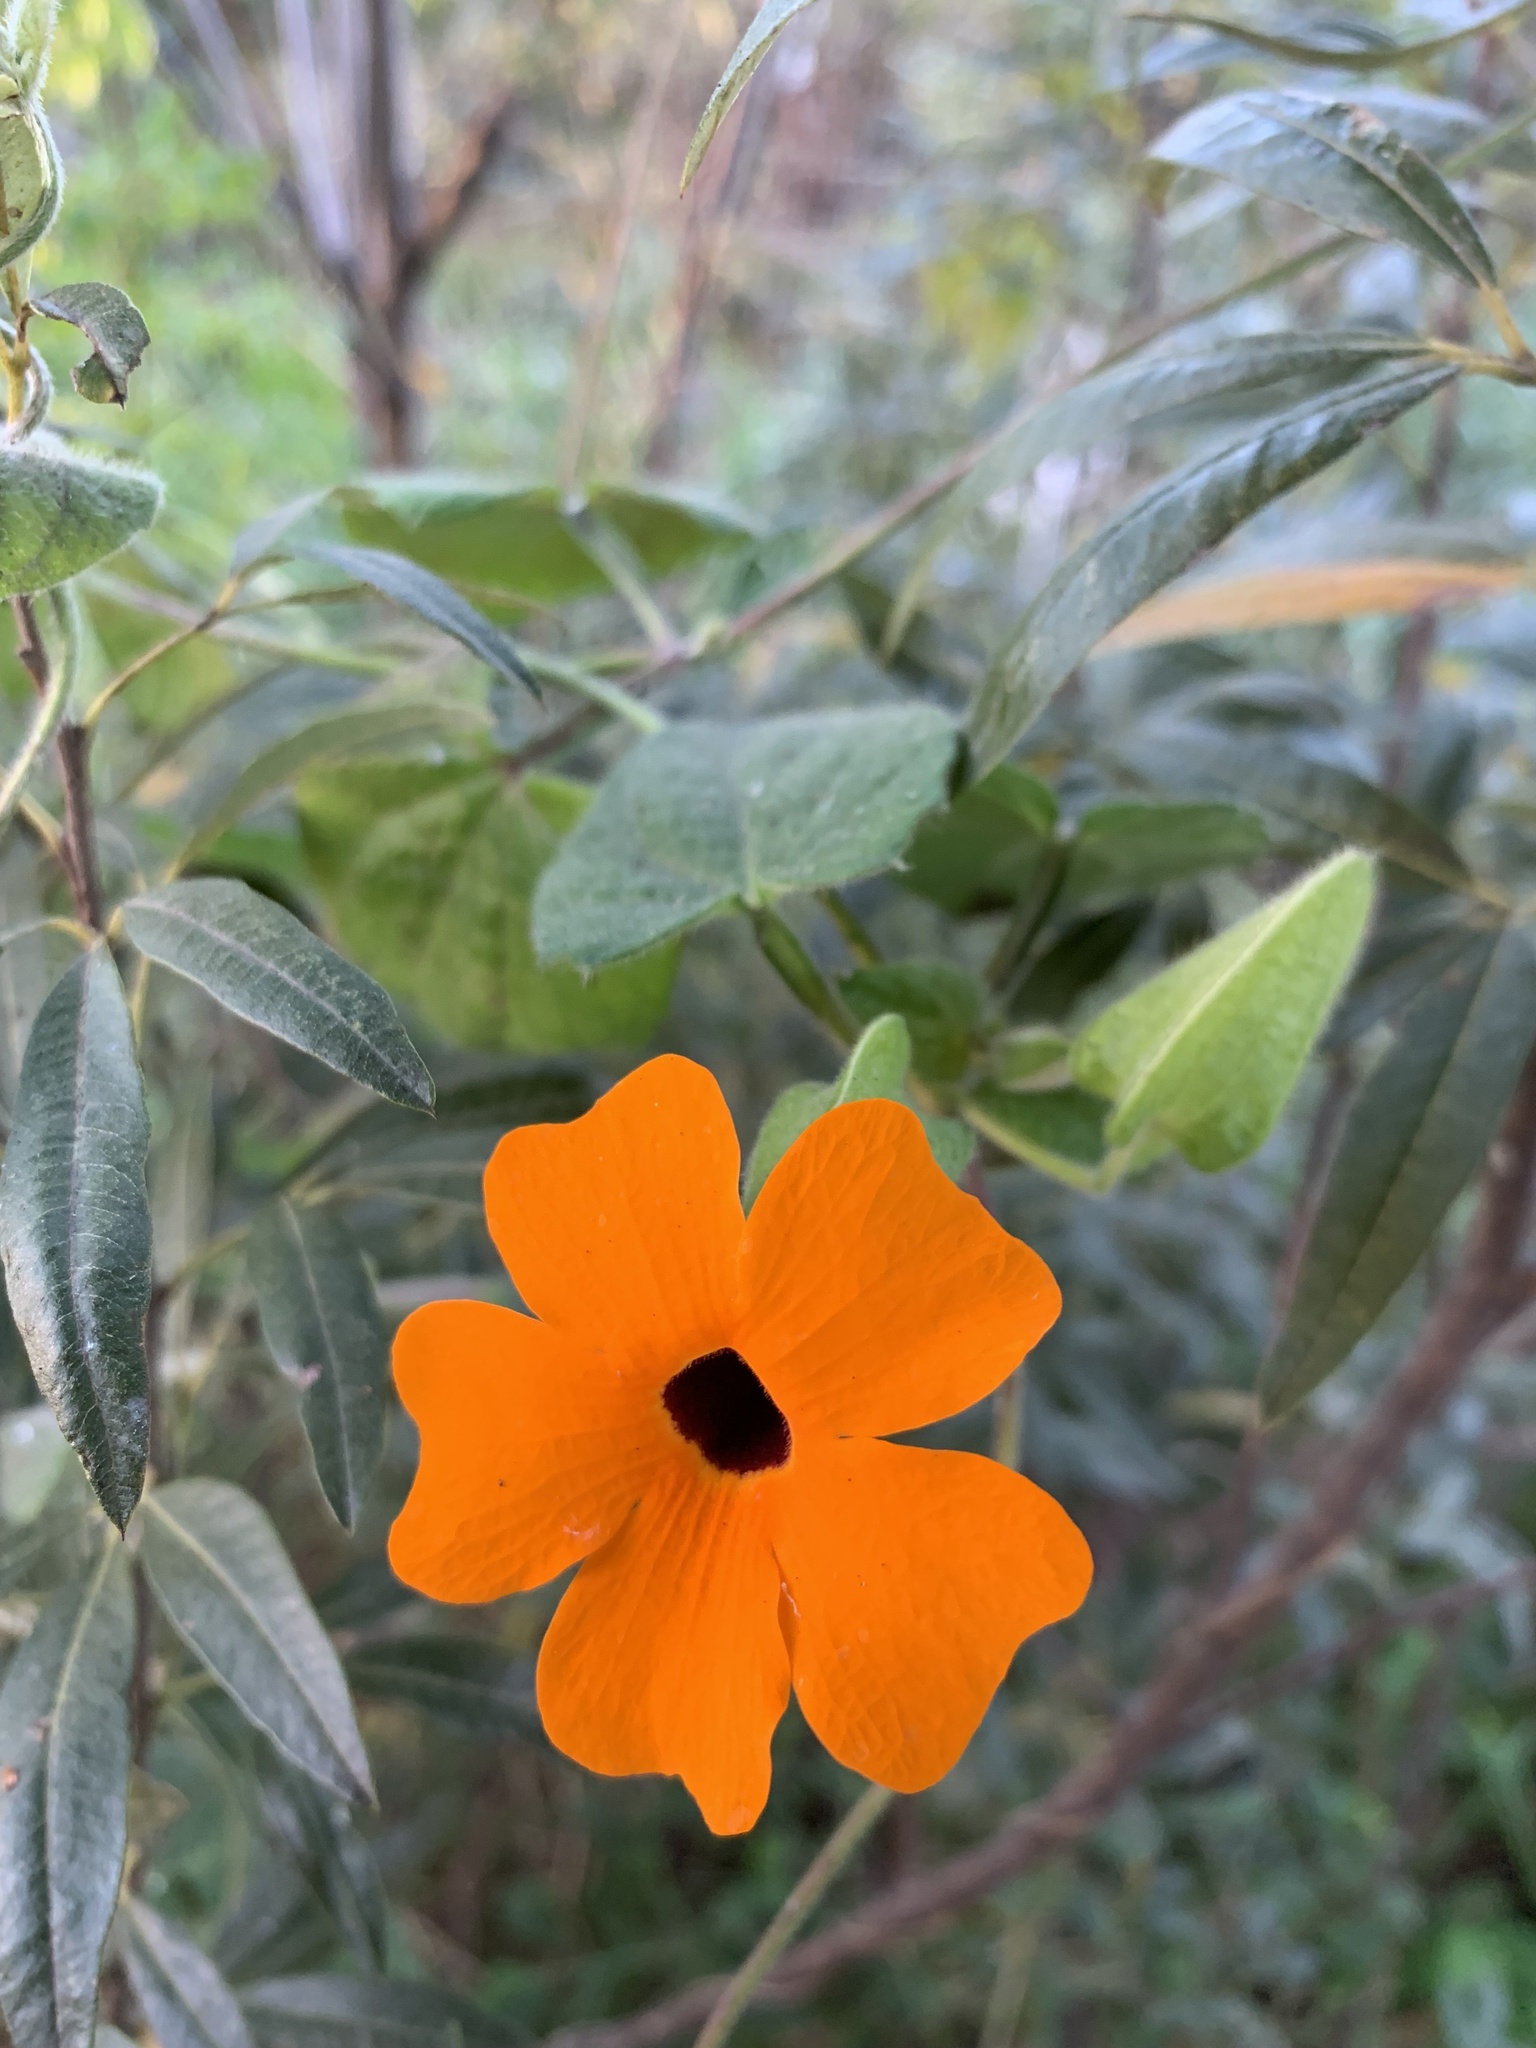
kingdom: Plantae
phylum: Tracheophyta
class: Magnoliopsida
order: Lamiales
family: Acanthaceae
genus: Thunbergia
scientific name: Thunbergia alata
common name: Blackeyed susan vine
